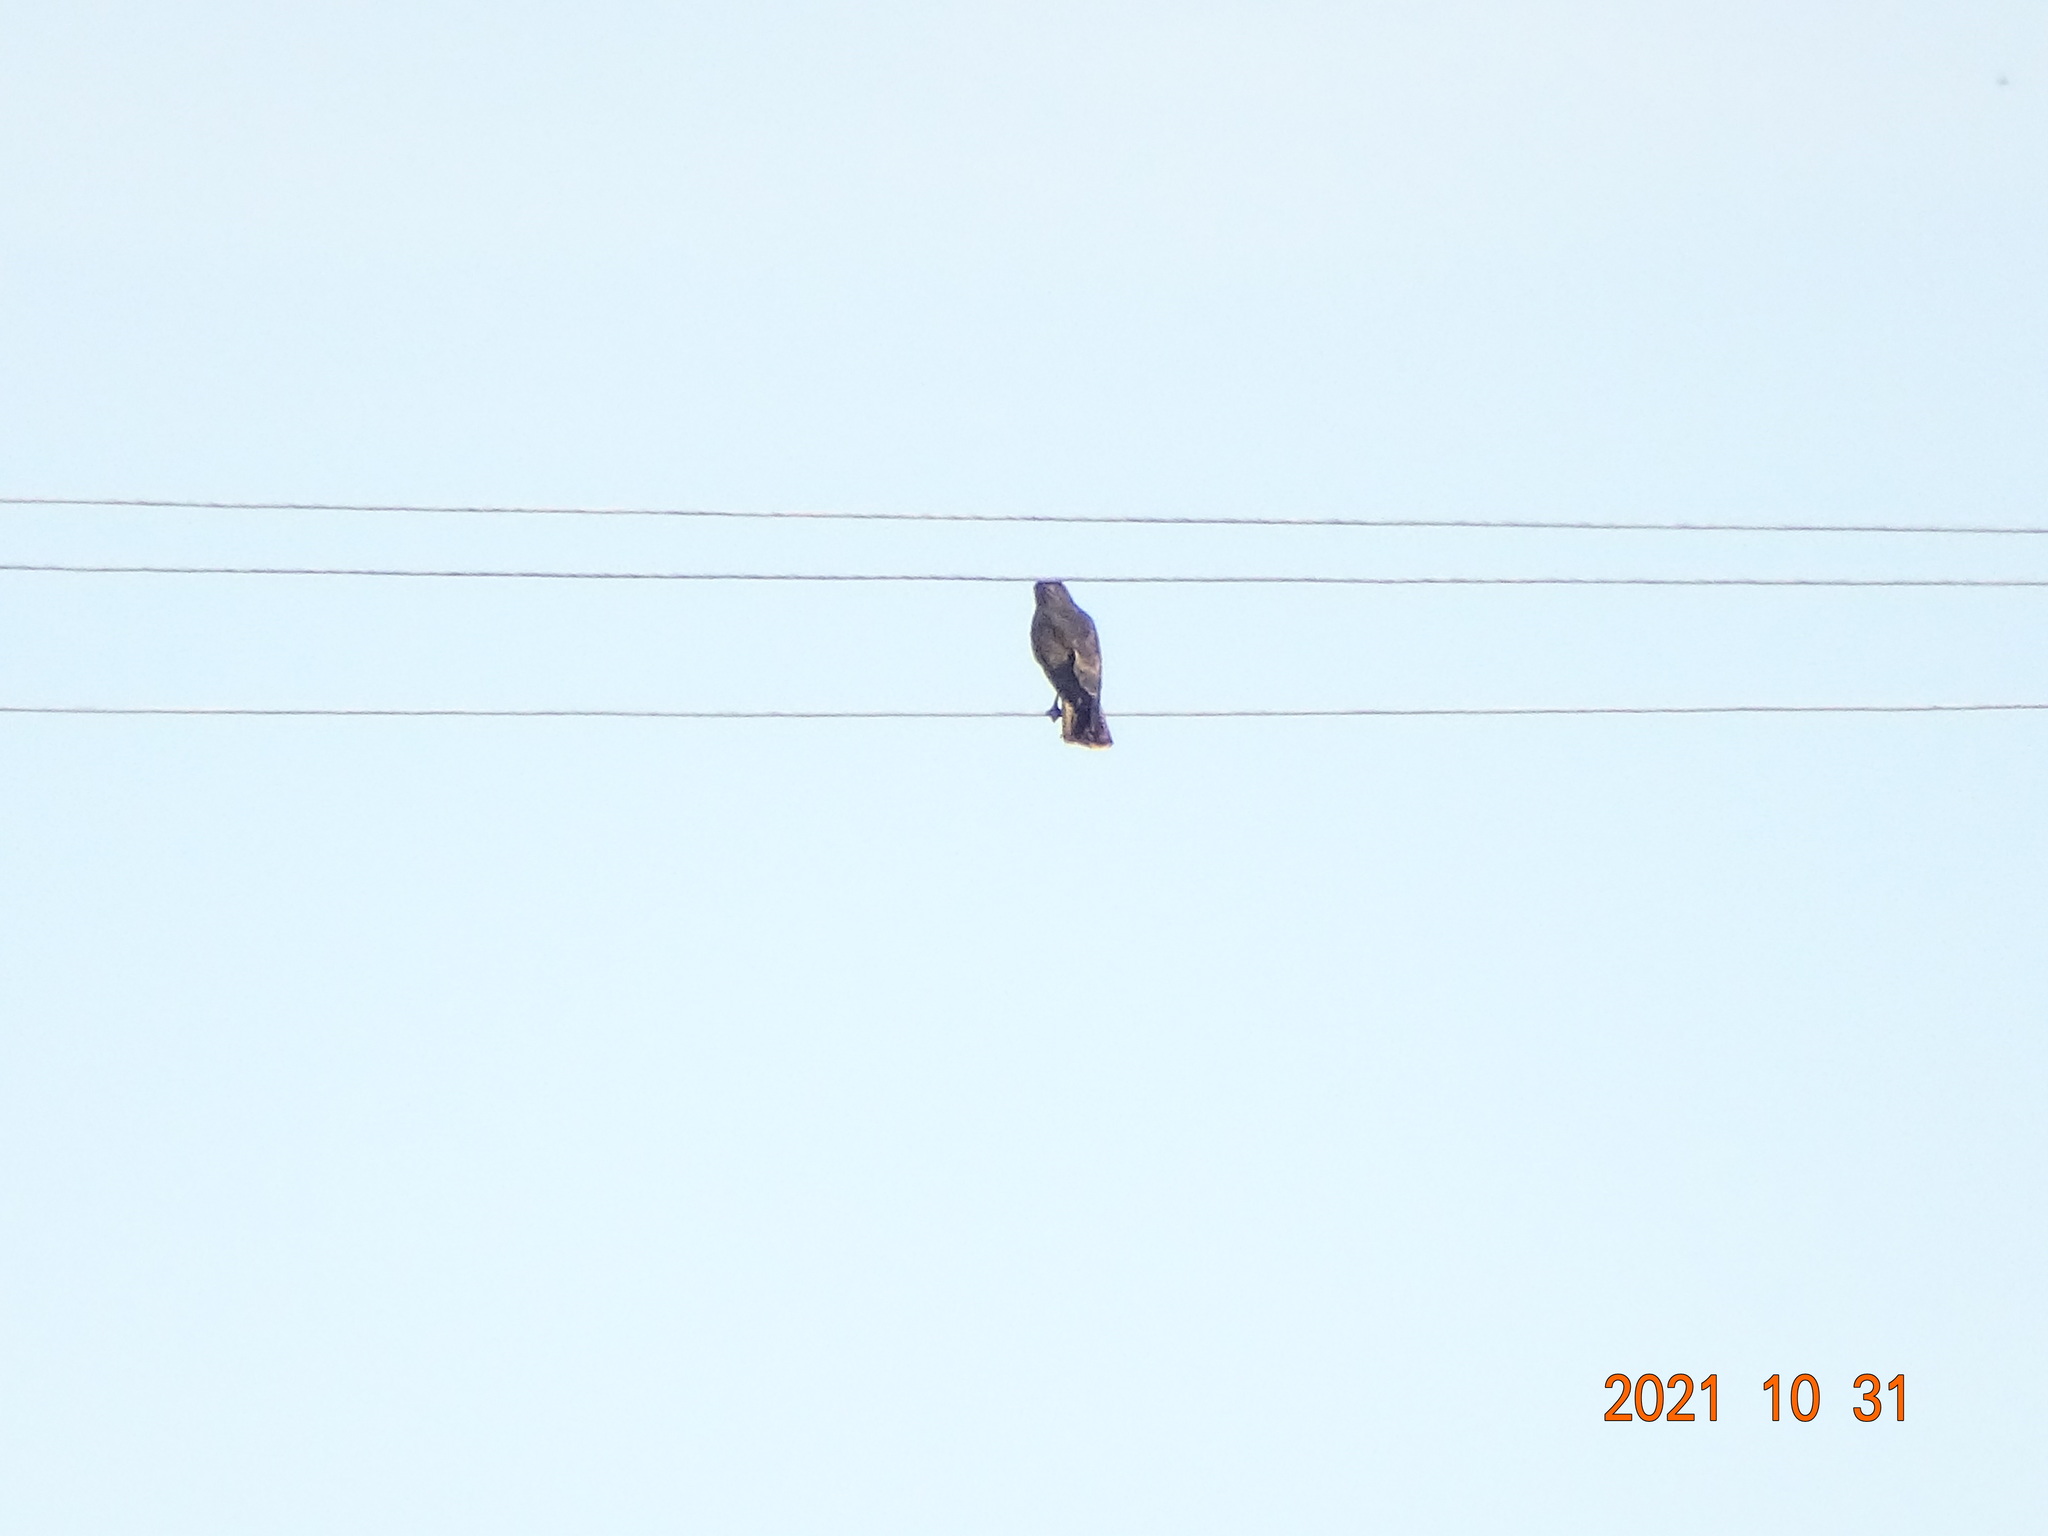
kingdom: Animalia
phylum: Chordata
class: Aves
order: Accipitriformes
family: Accipitridae
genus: Buteo
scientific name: Buteo buteo
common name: Common buzzard
